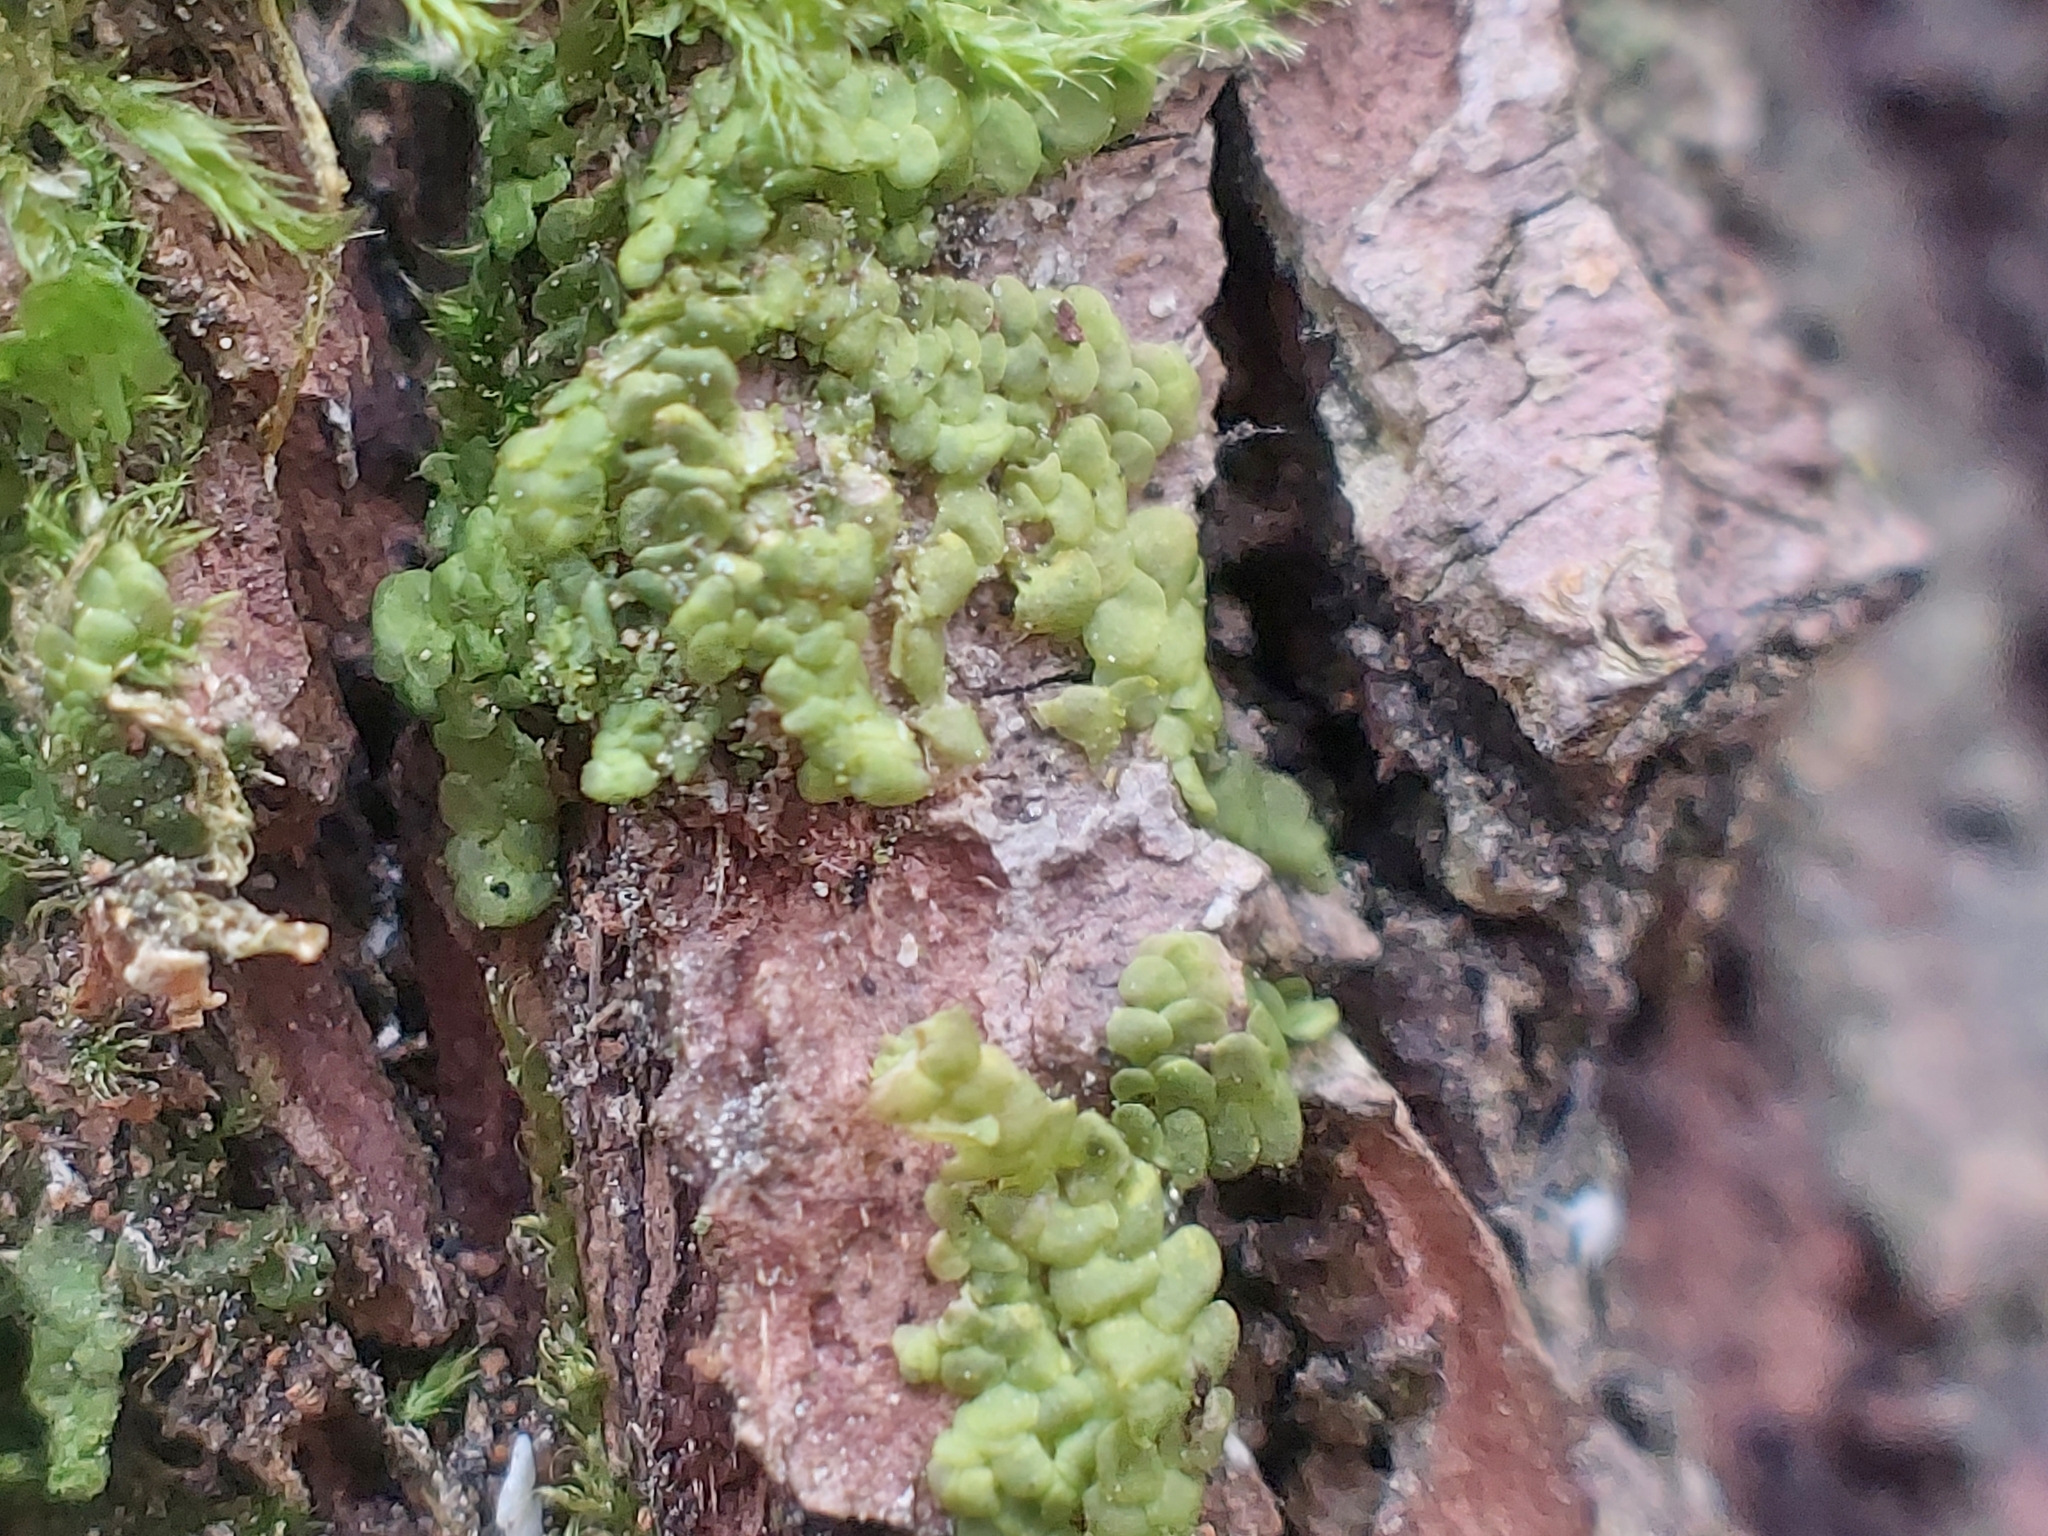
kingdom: Plantae
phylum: Marchantiophyta
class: Jungermanniopsida
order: Porellales
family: Radulaceae
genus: Radula
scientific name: Radula complanata
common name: Flat-leaved scalewort
